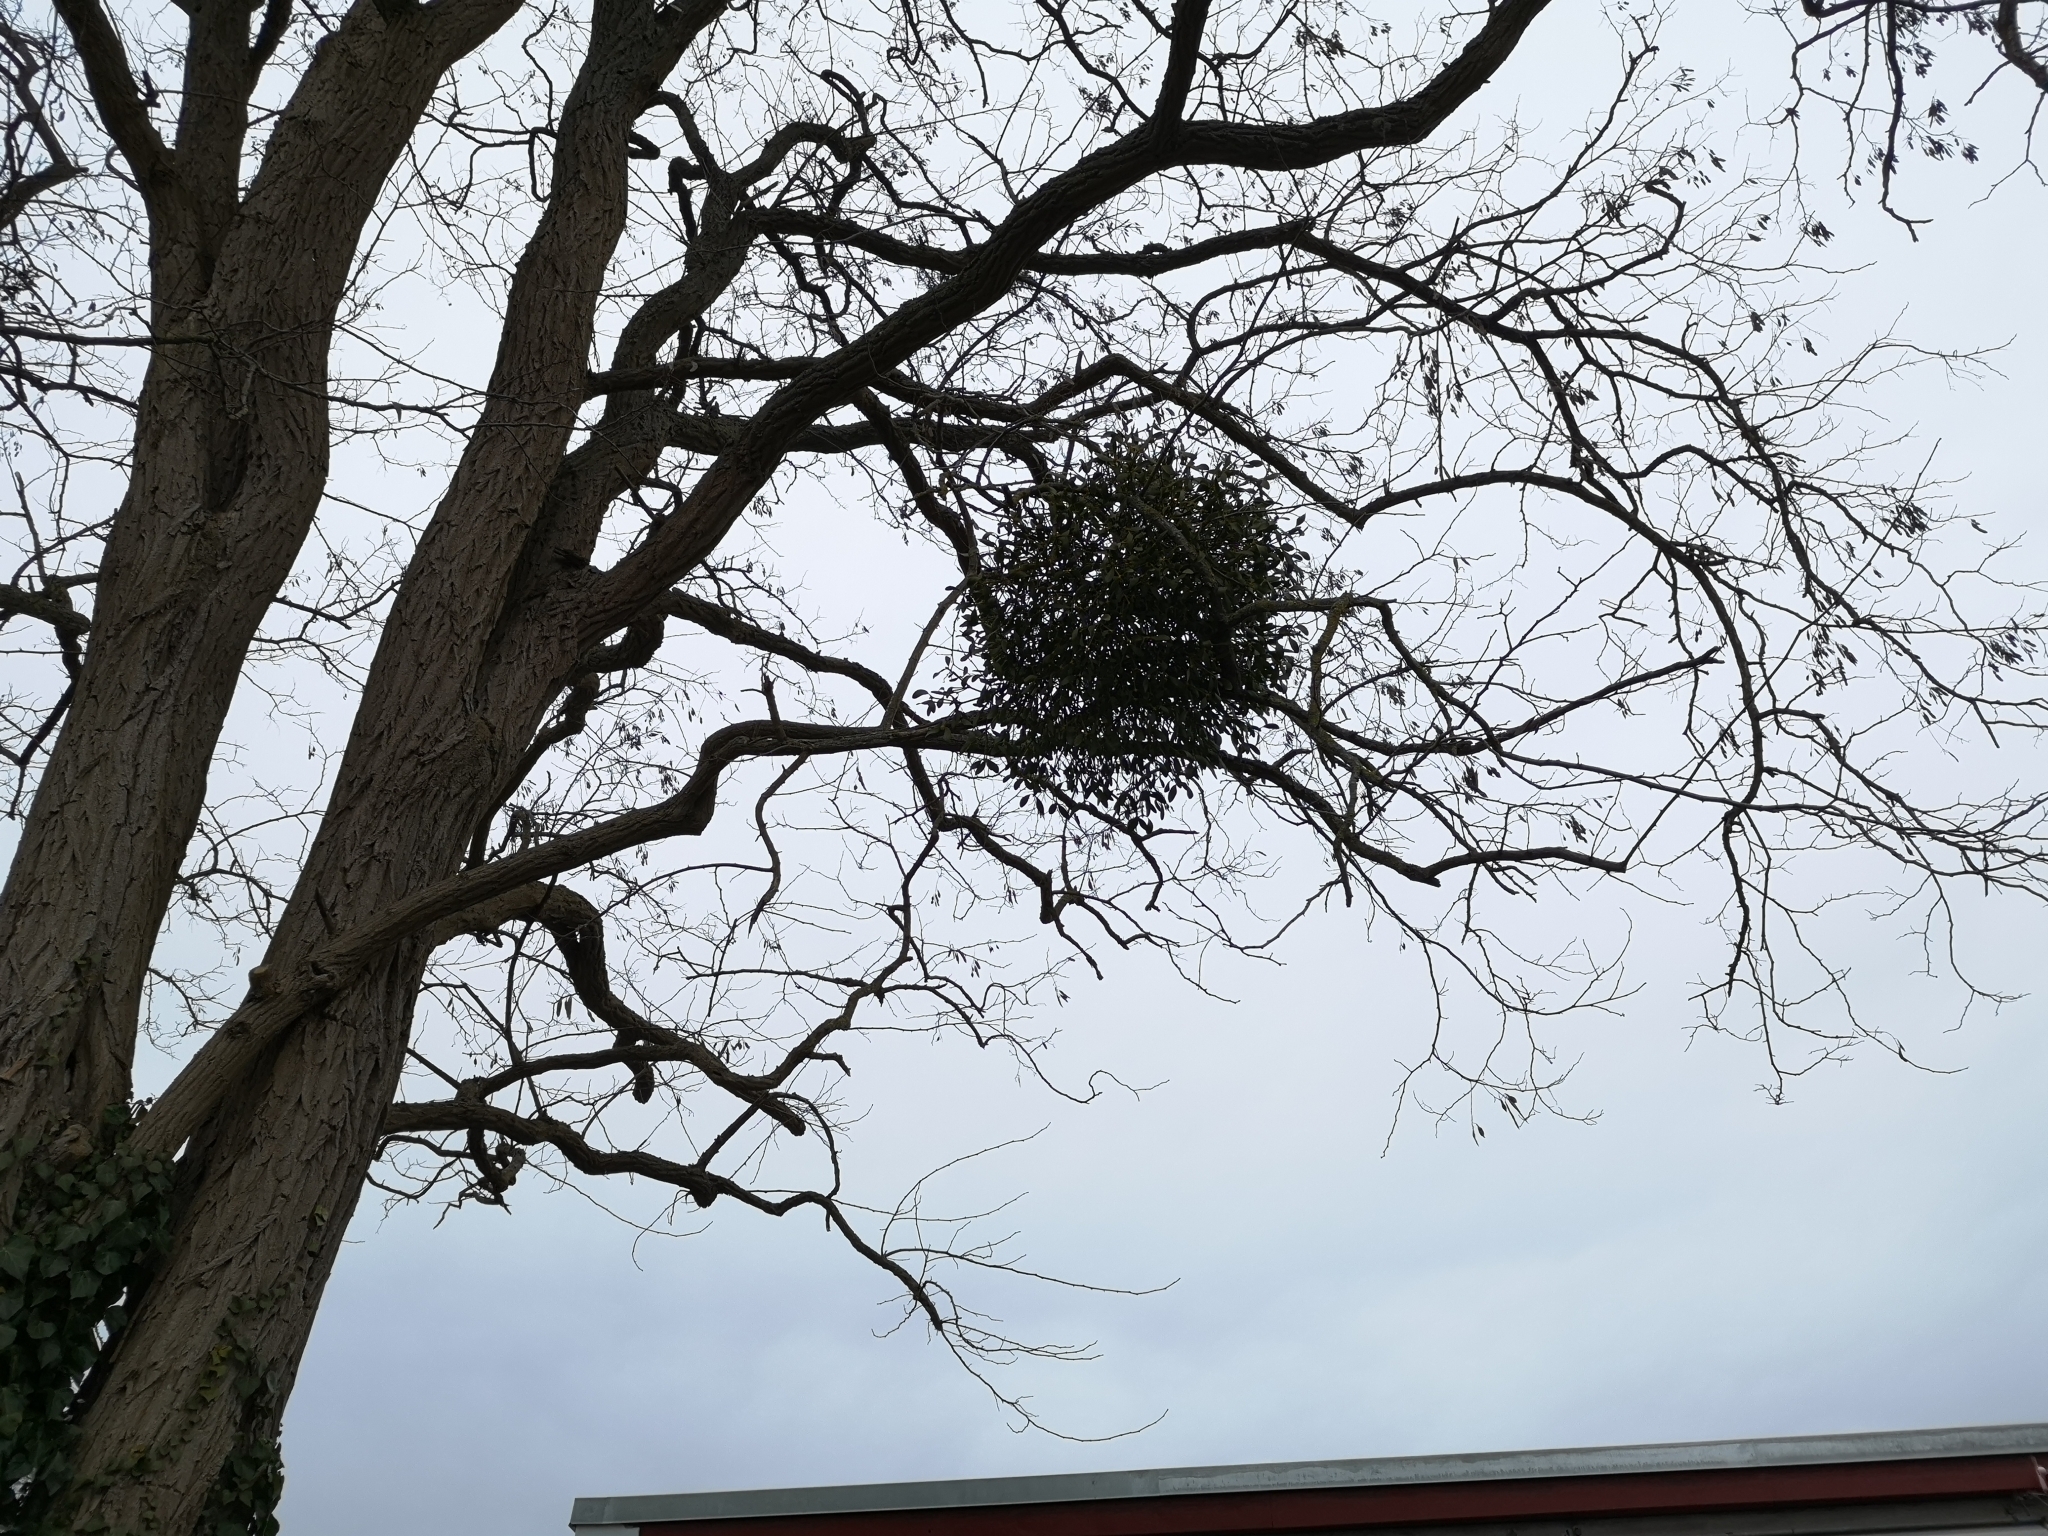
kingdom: Plantae
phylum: Tracheophyta
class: Magnoliopsida
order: Santalales
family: Viscaceae
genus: Viscum
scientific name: Viscum album
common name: Mistletoe
